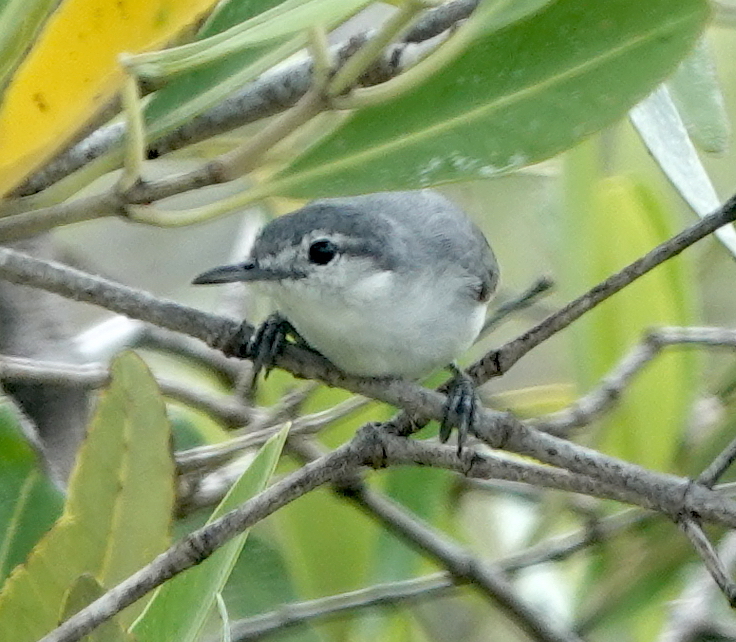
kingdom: Animalia
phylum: Chordata
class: Aves
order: Passeriformes
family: Polioptilidae
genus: Polioptila
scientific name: Polioptila albiloris
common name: White-lored gnatcatcher
